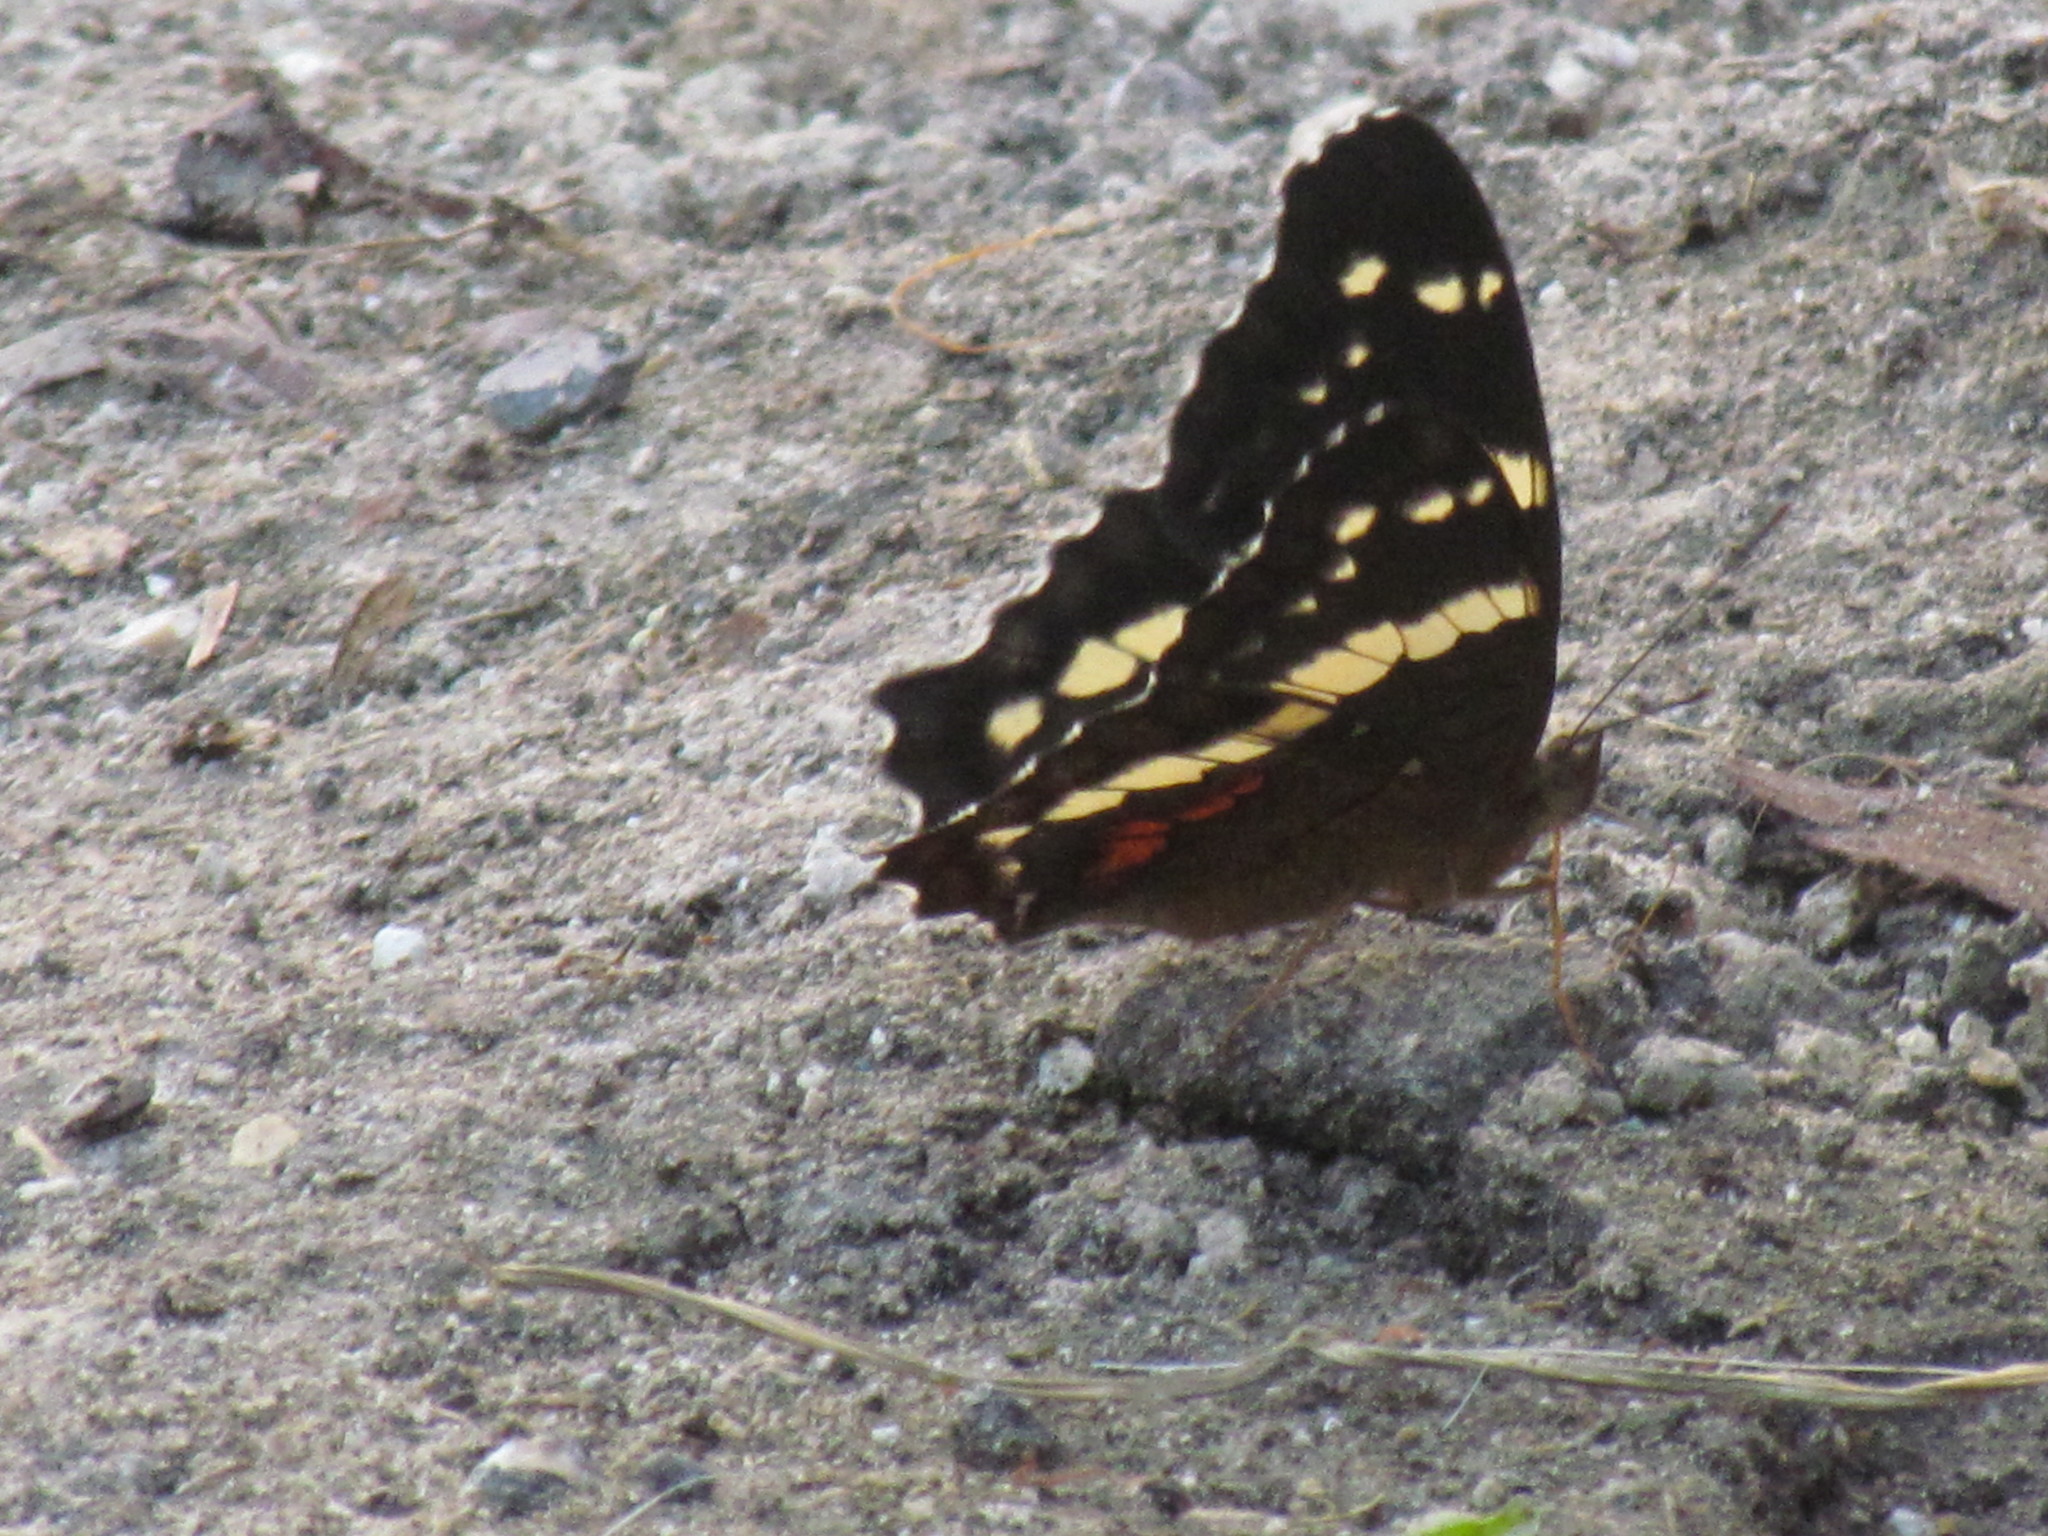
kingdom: Animalia
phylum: Arthropoda
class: Insecta
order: Lepidoptera
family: Nymphalidae
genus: Anartia
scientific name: Anartia fatima
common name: Banded peacock
